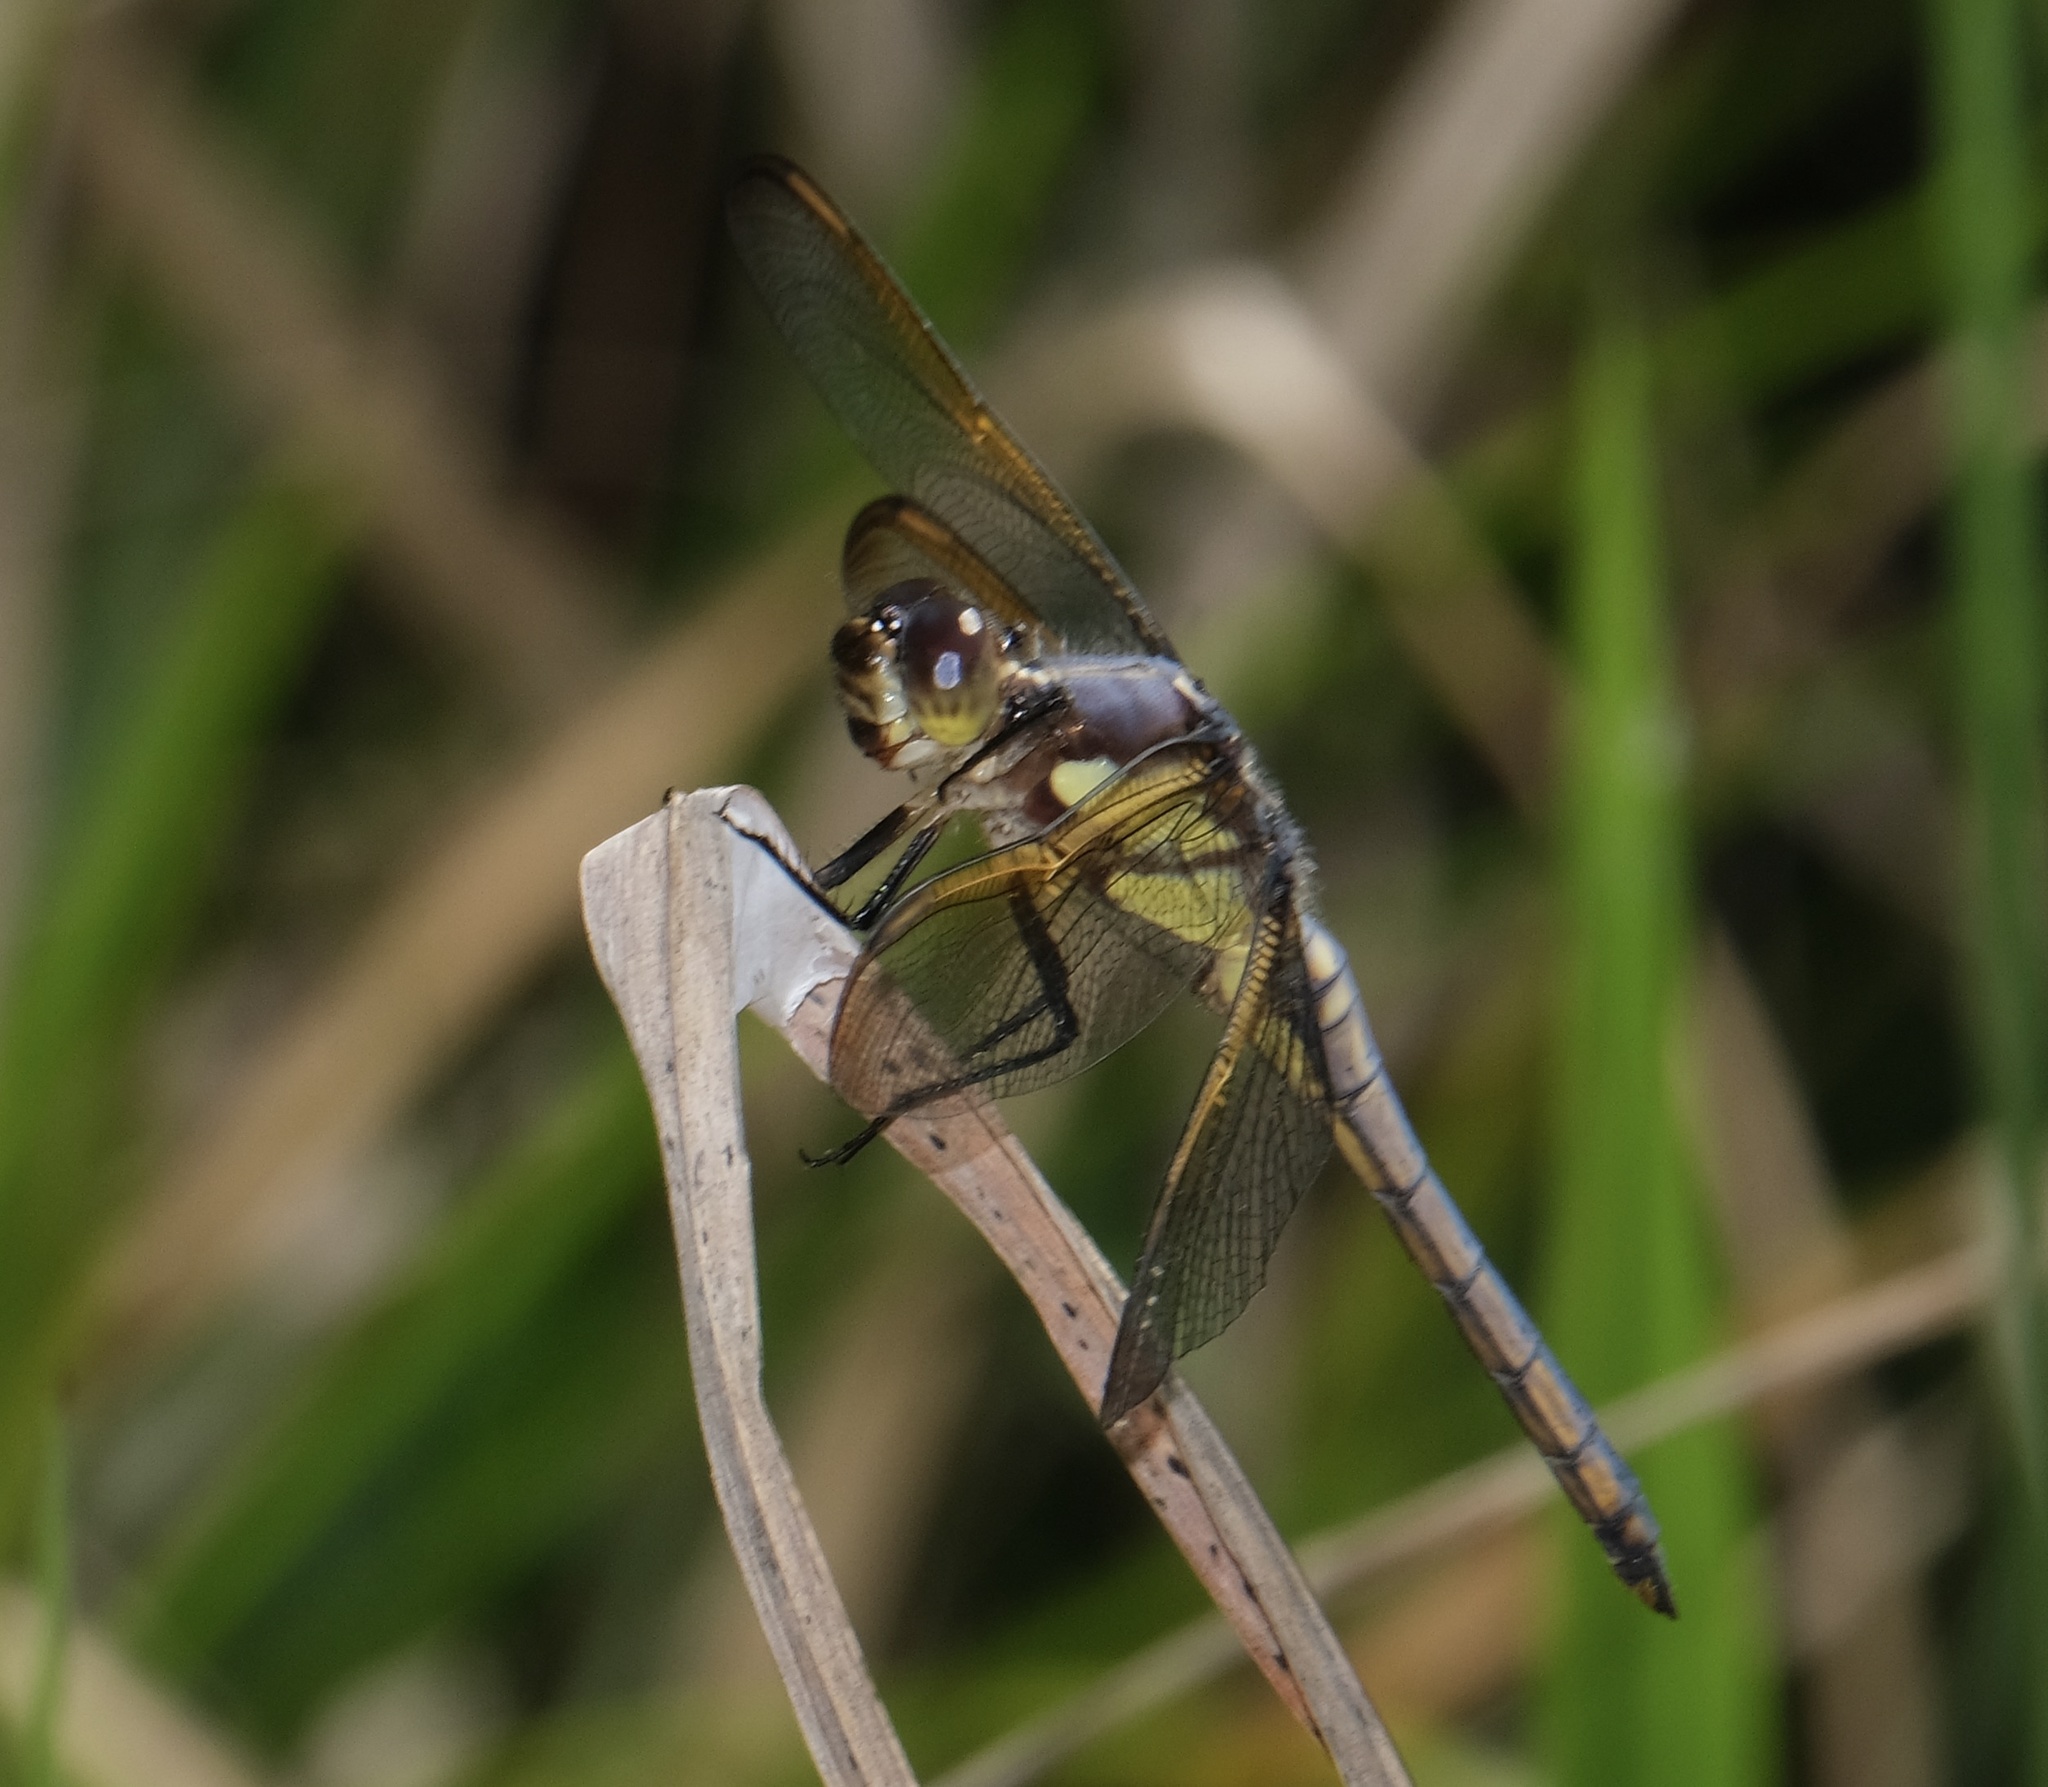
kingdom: Animalia
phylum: Arthropoda
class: Insecta
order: Odonata
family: Libellulidae
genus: Libellula
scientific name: Libellula flavida
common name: Yellow-sided skimmer
